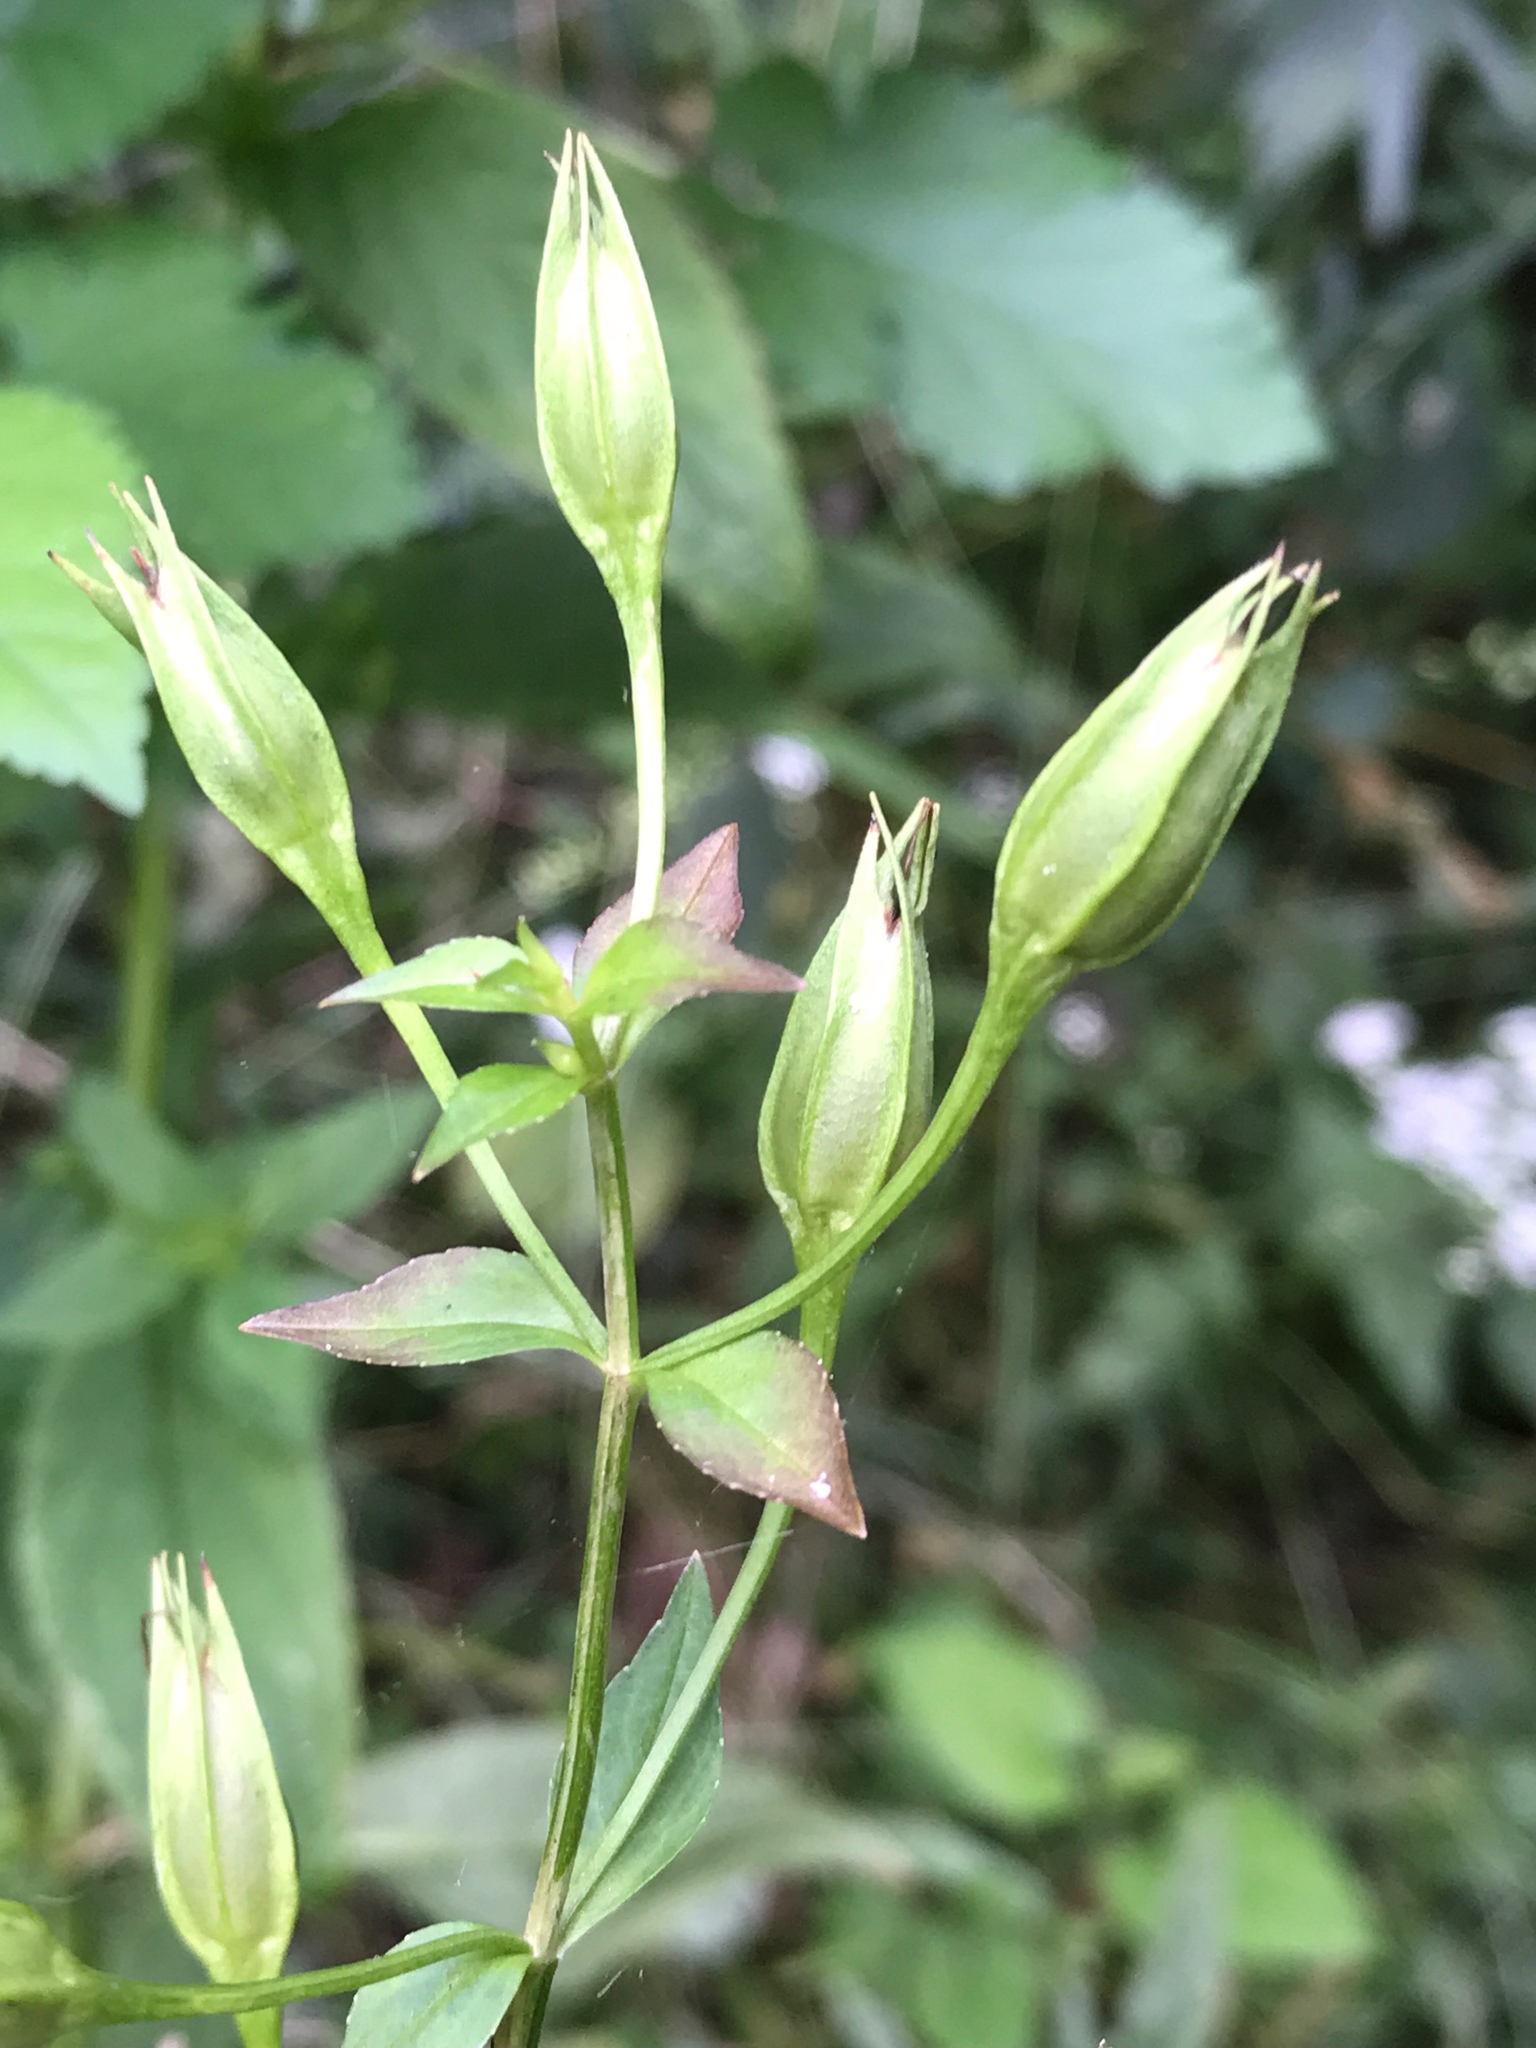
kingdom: Plantae
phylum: Tracheophyta
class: Magnoliopsida
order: Lamiales
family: Phrymaceae
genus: Mimulus
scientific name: Mimulus ringens
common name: Allegheny monkeyflower
